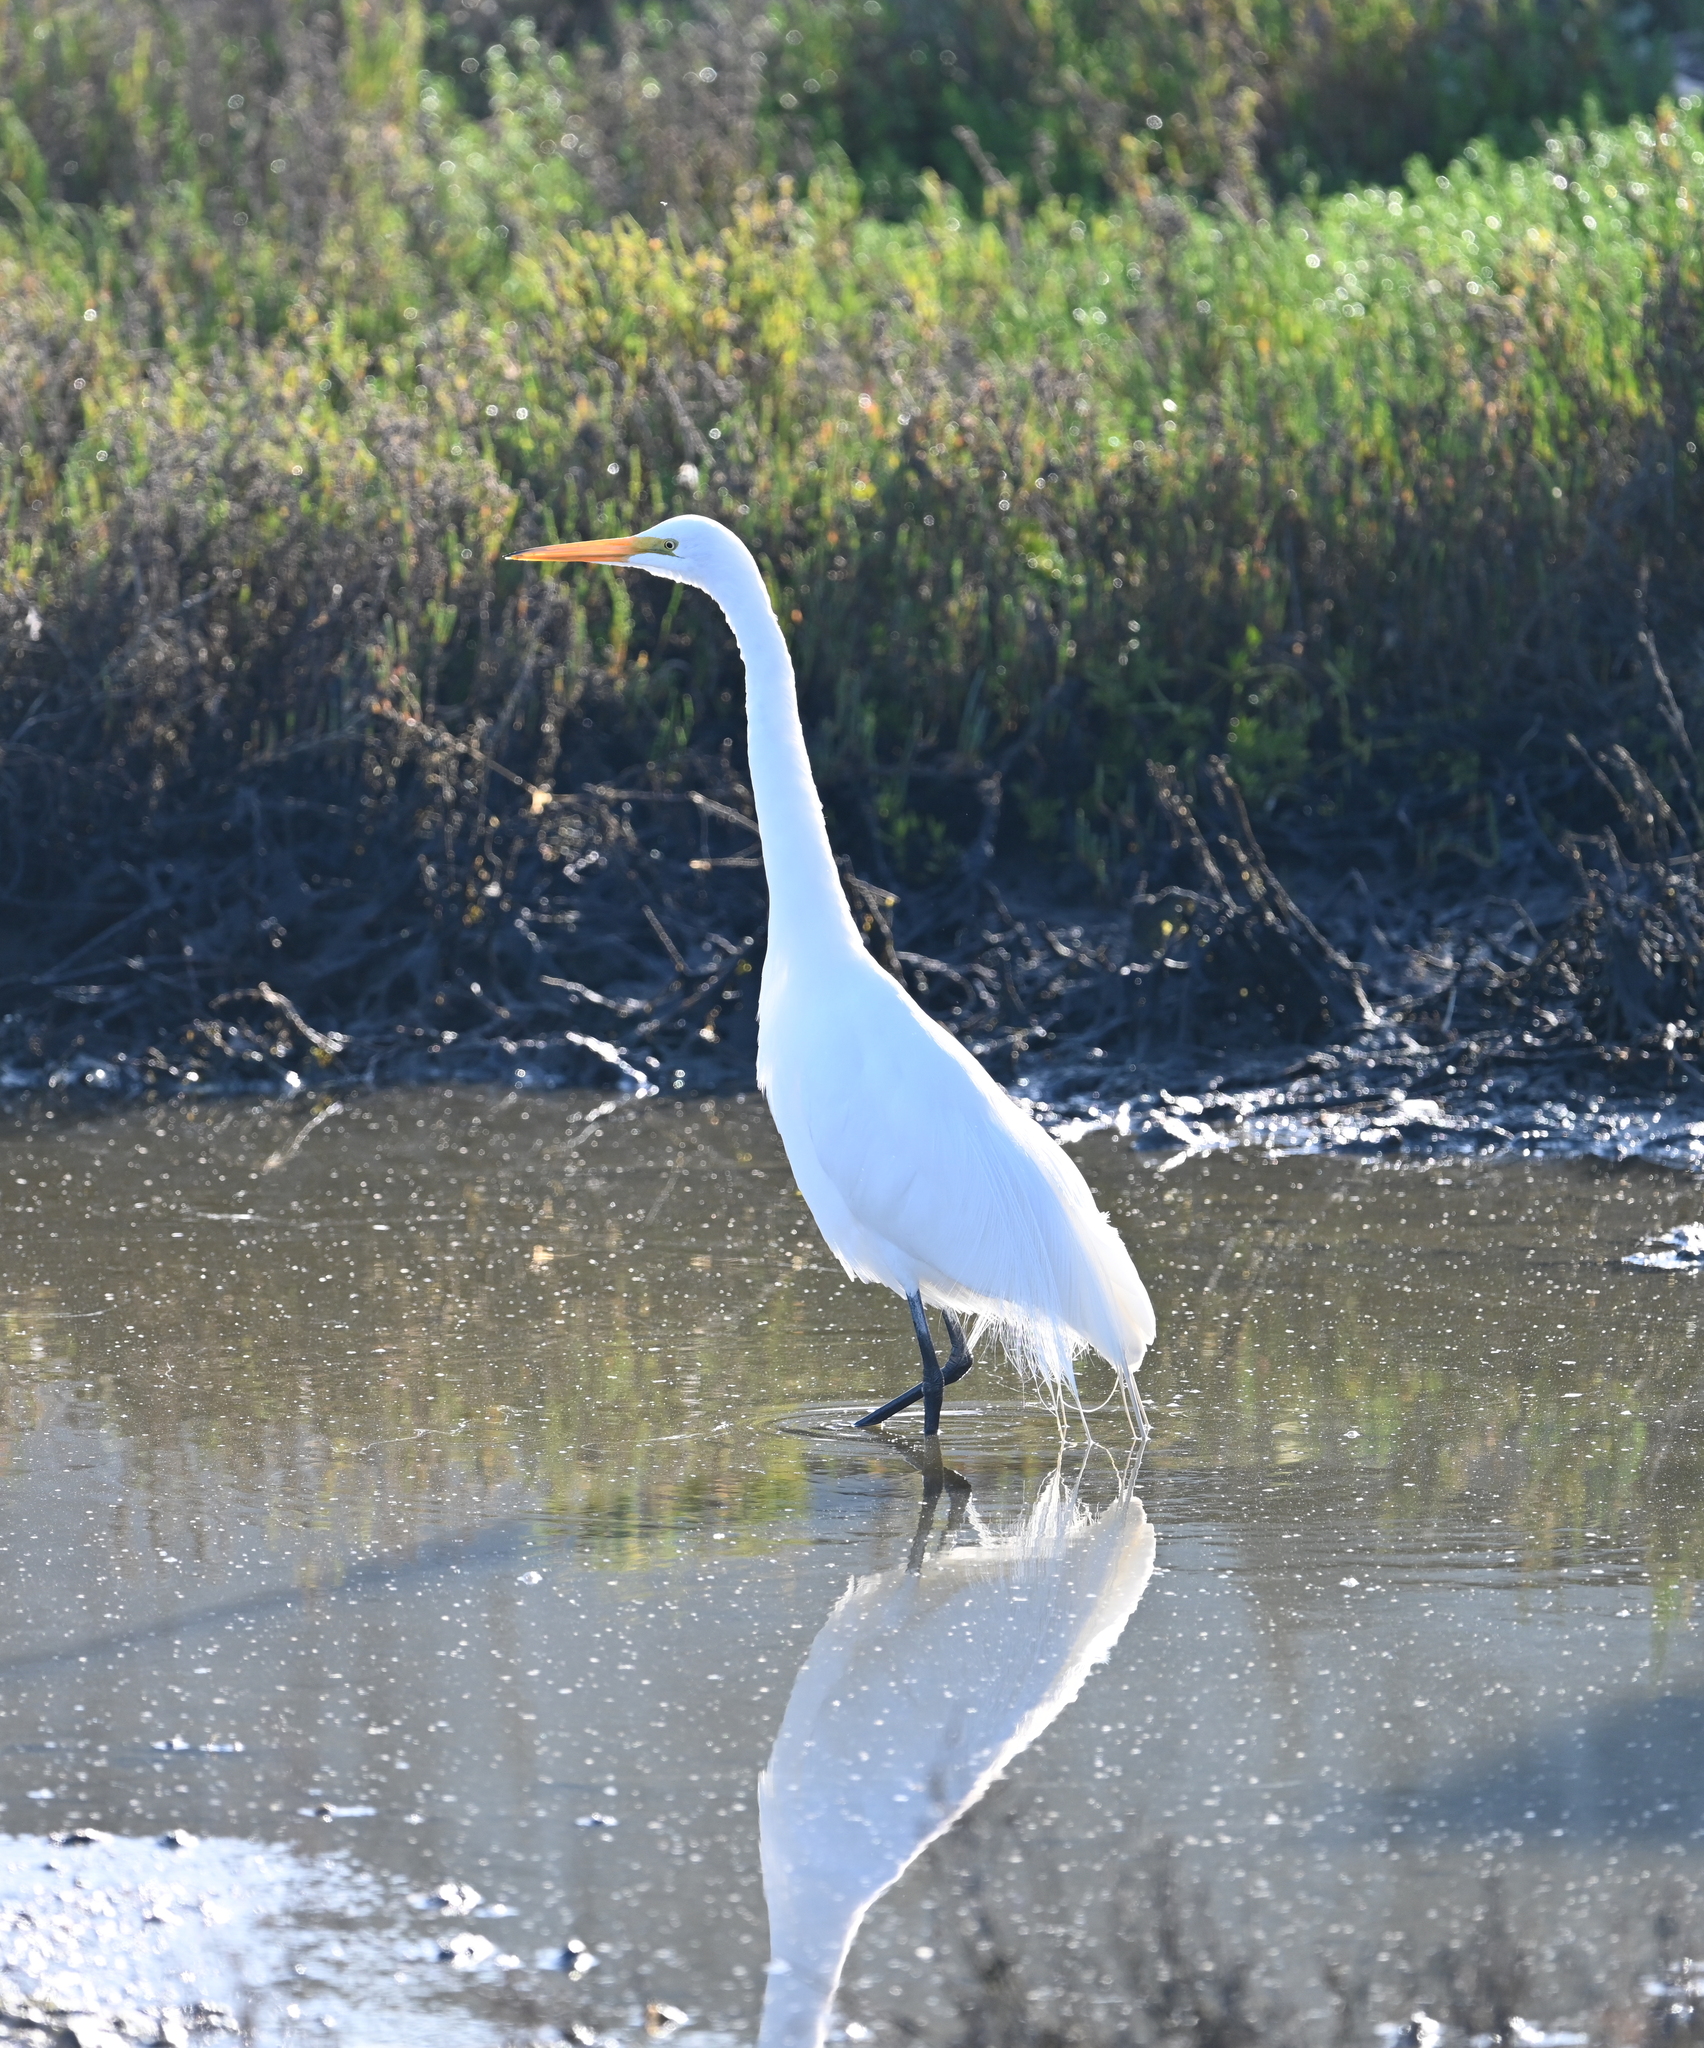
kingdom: Animalia
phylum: Chordata
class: Aves
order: Pelecaniformes
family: Ardeidae
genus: Ardea
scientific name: Ardea alba
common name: Great egret
